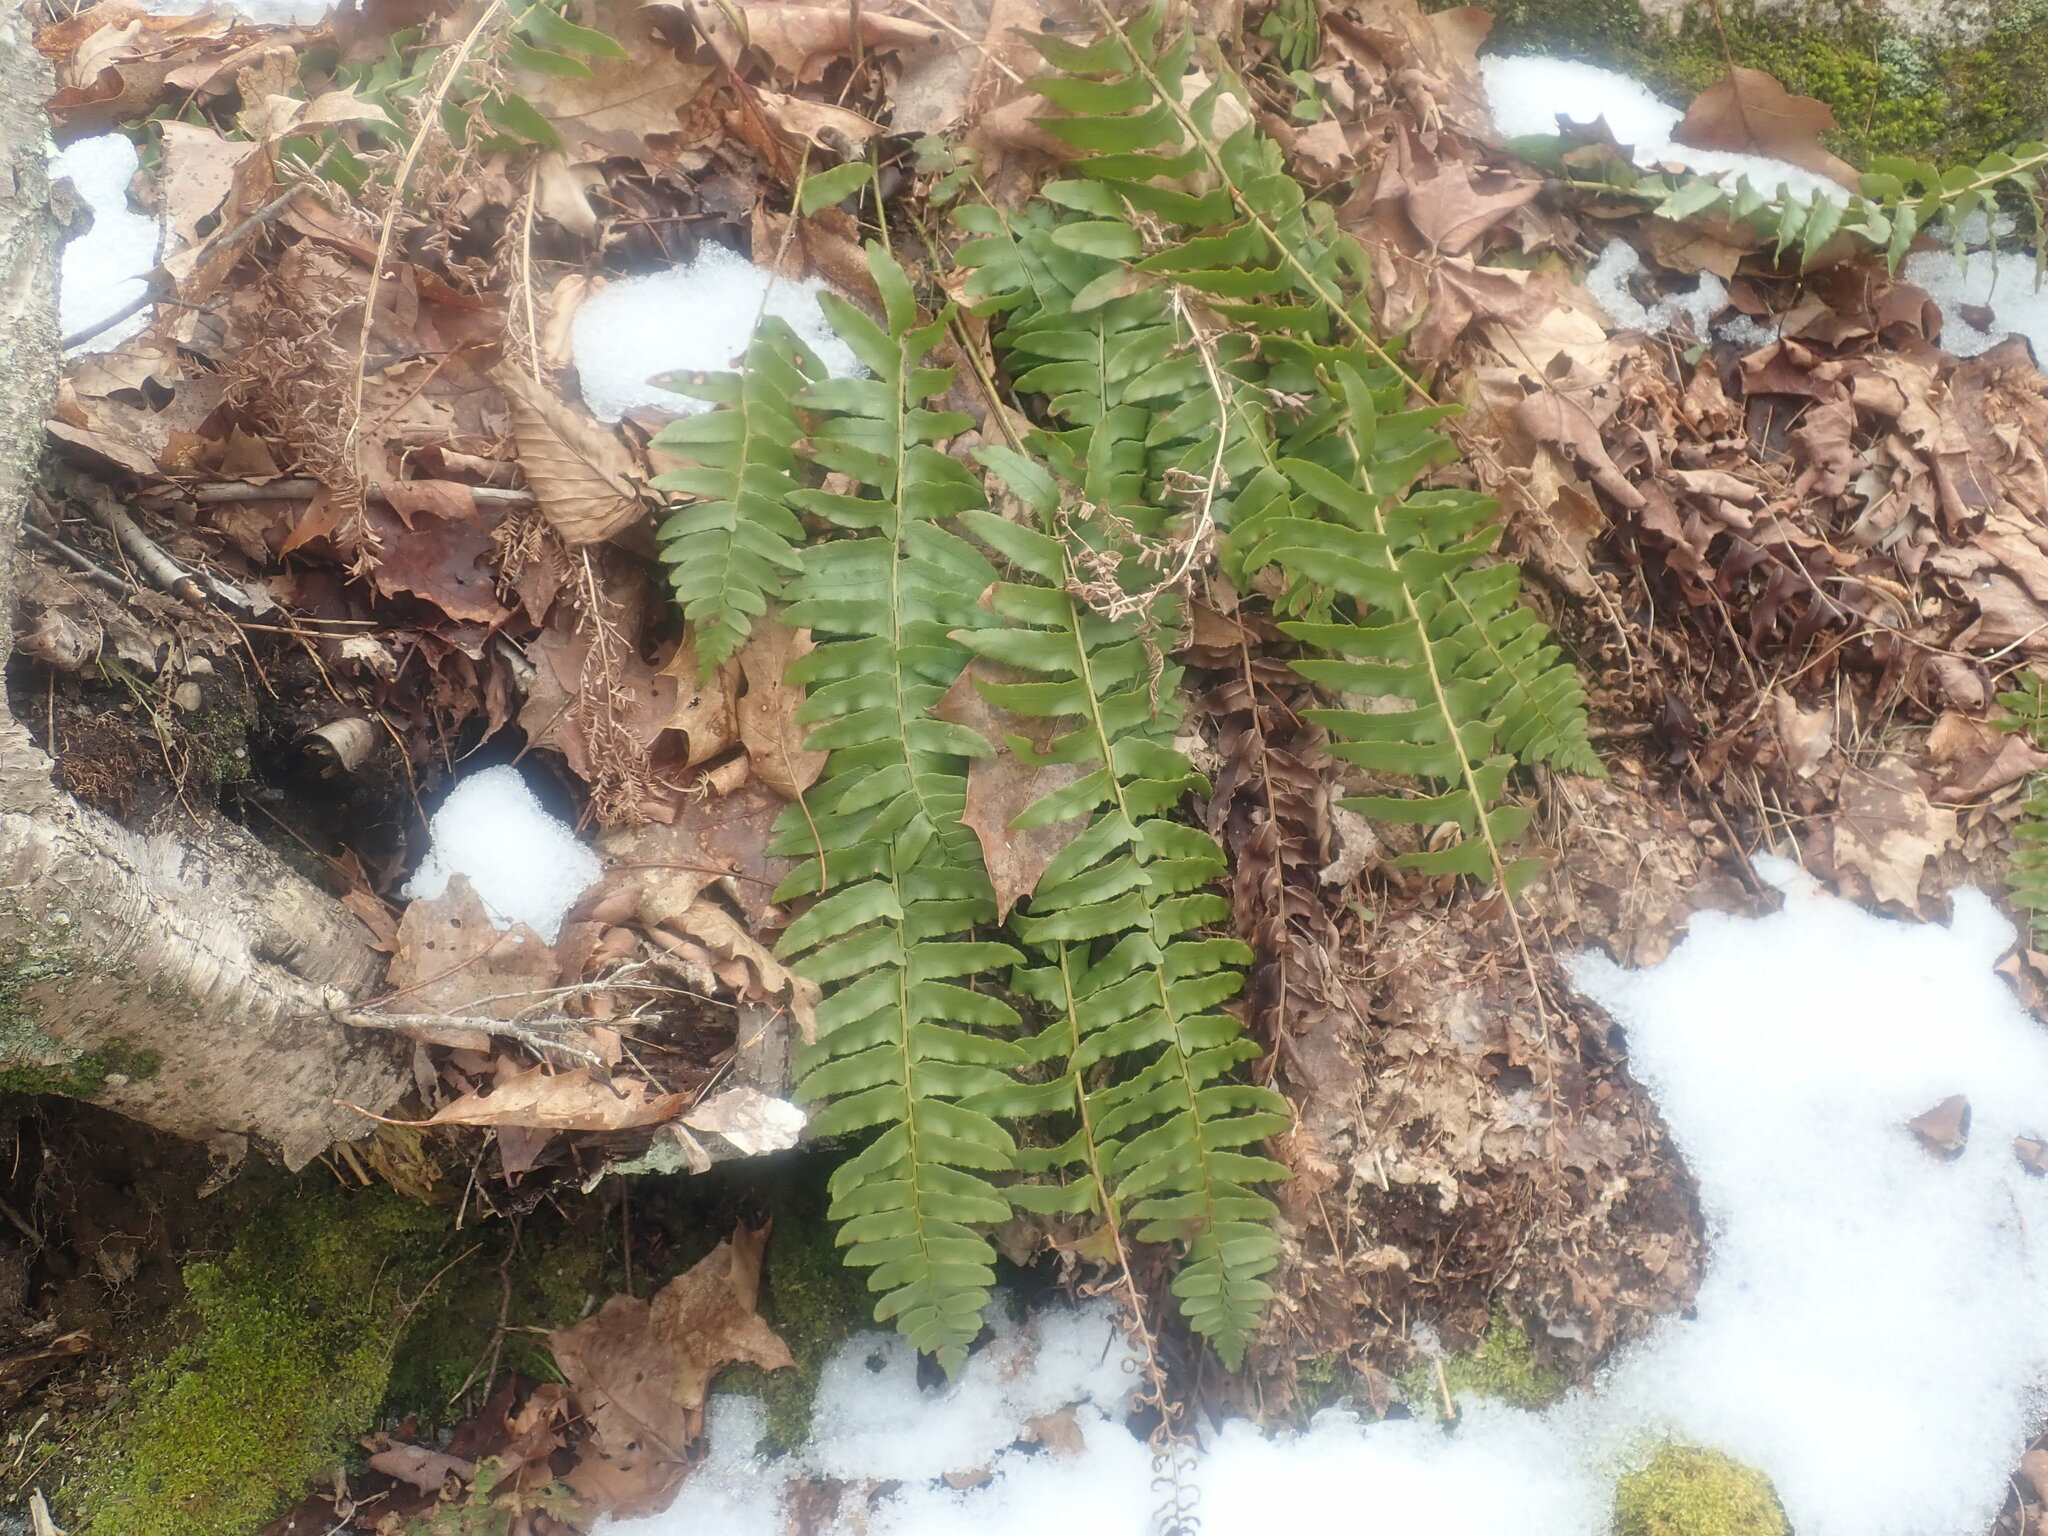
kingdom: Plantae
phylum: Tracheophyta
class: Polypodiopsida
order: Polypodiales
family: Dryopteridaceae
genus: Polystichum
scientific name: Polystichum acrostichoides
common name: Christmas fern
